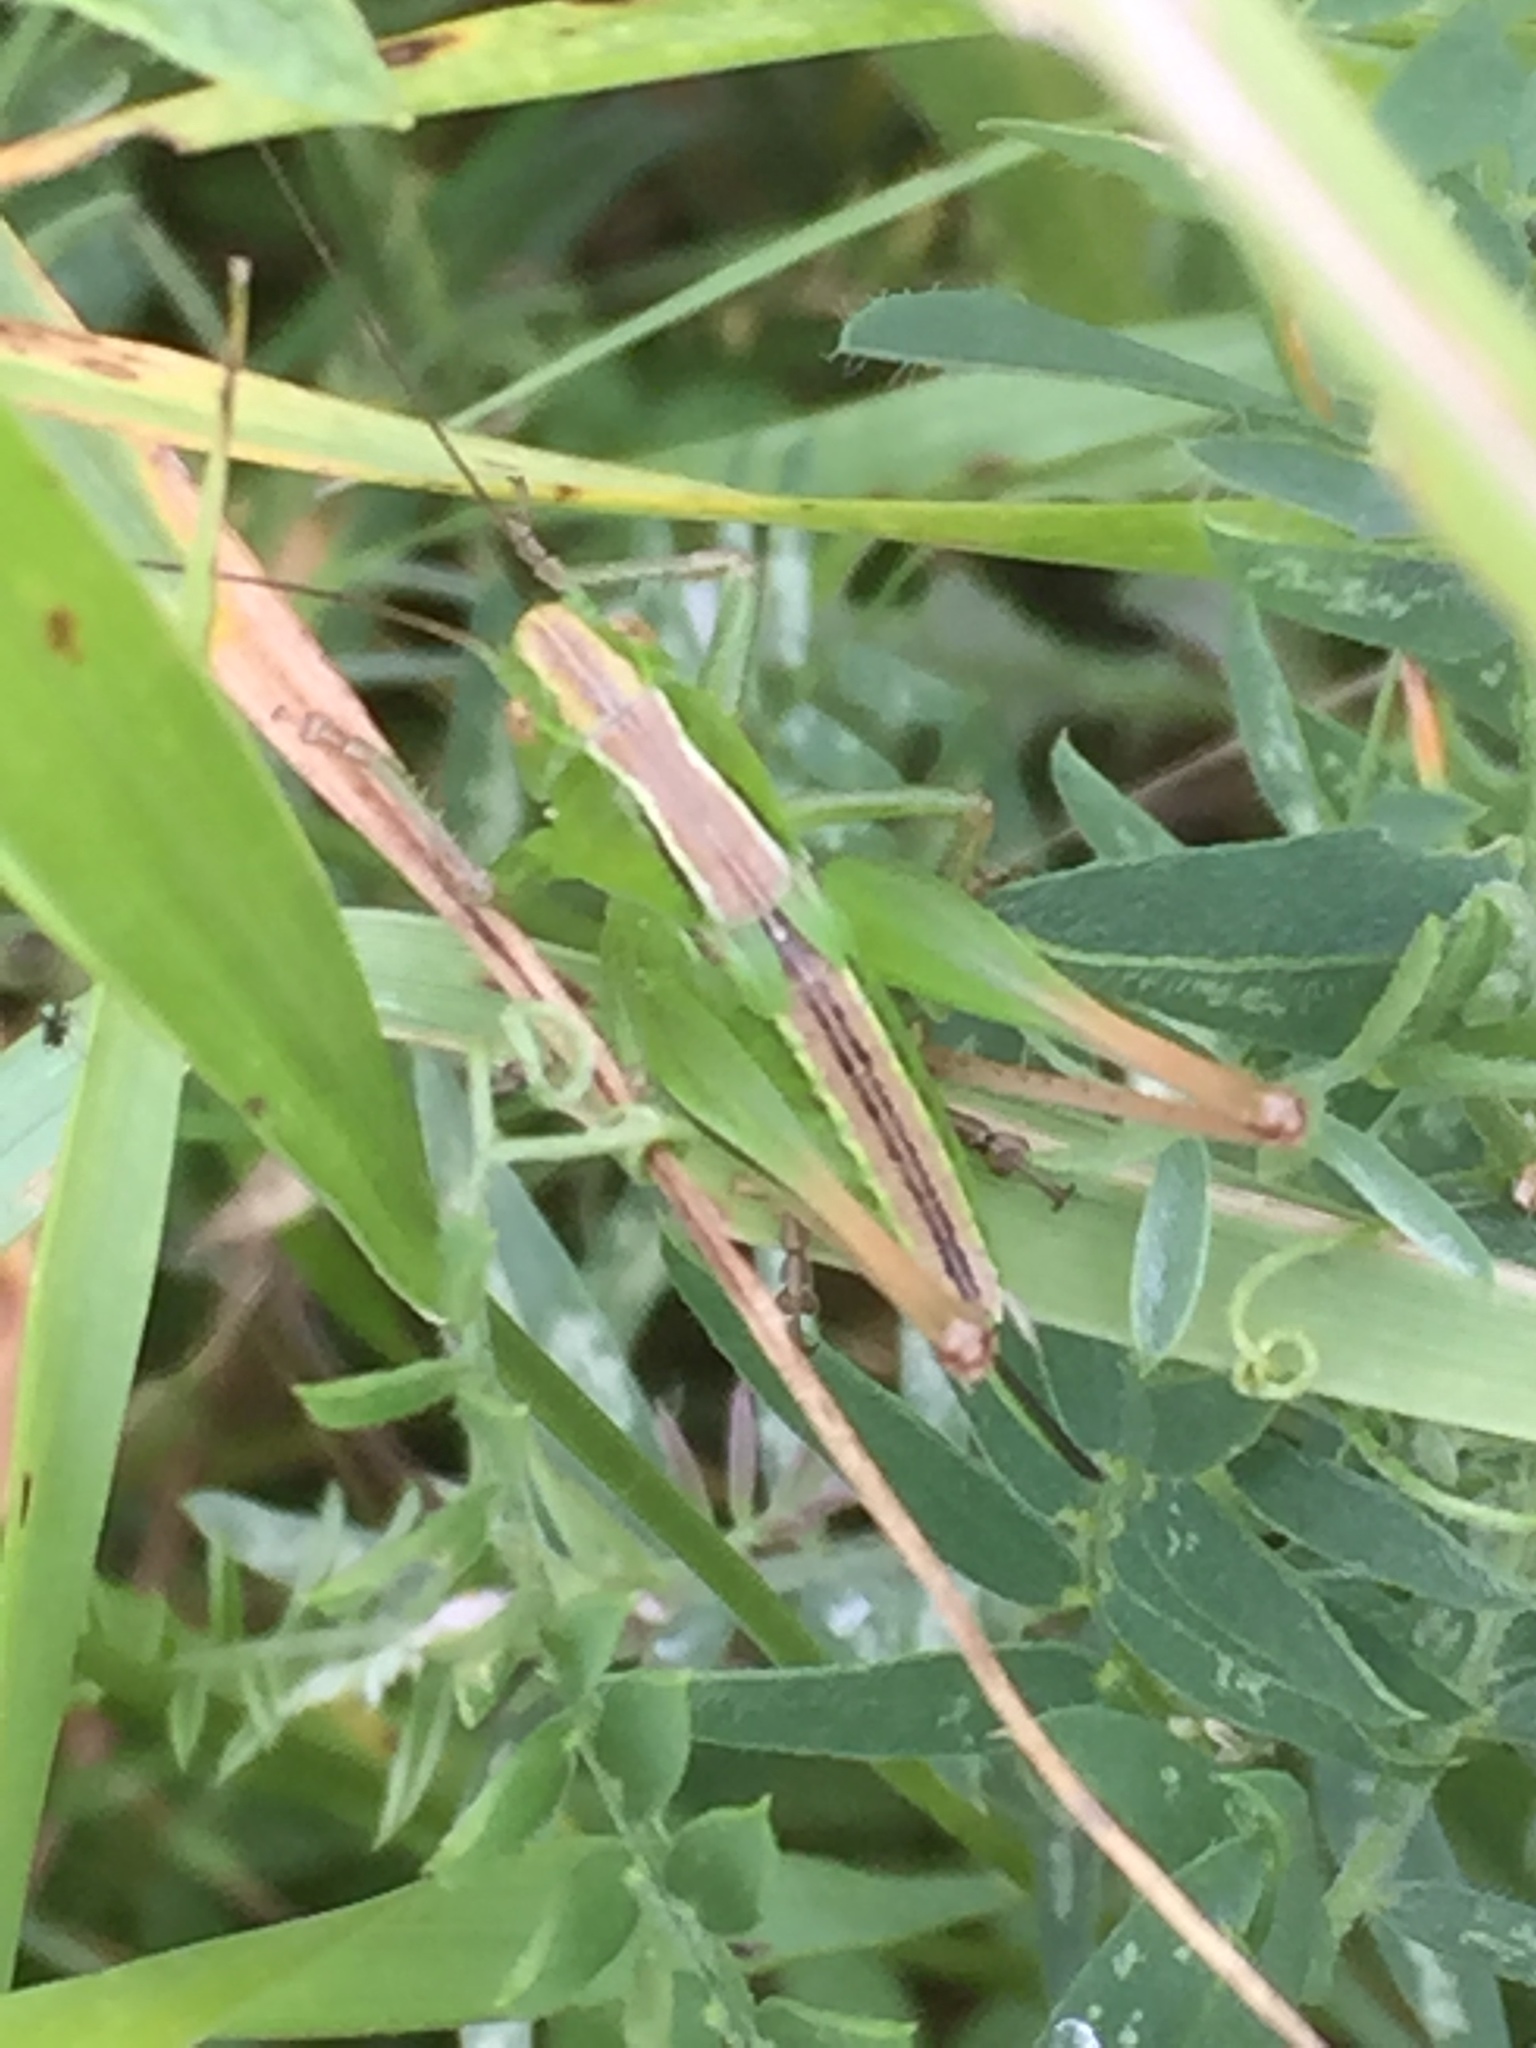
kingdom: Animalia
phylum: Arthropoda
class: Insecta
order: Orthoptera
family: Tettigoniidae
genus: Bicolorana
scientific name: Bicolorana bicolor
